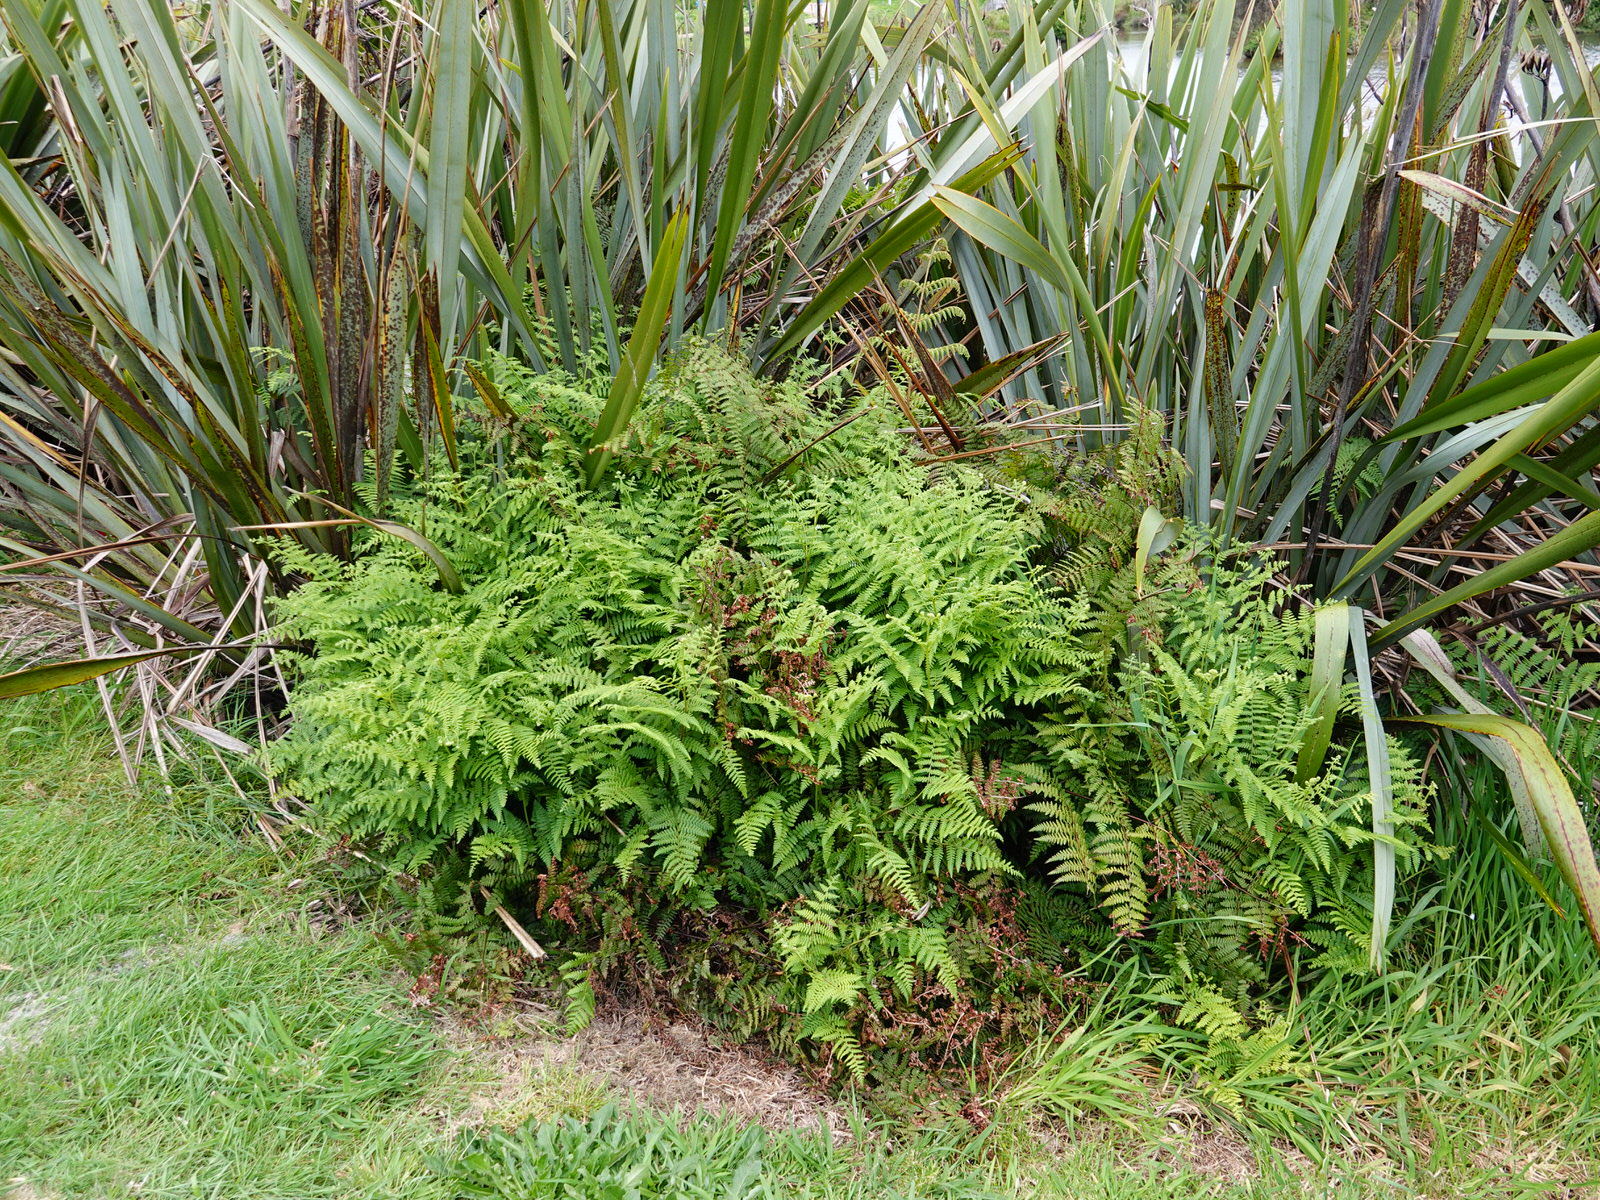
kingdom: Plantae
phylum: Tracheophyta
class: Polypodiopsida
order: Polypodiales
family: Dennstaedtiaceae
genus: Hypolepis
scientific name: Hypolepis ambigua
